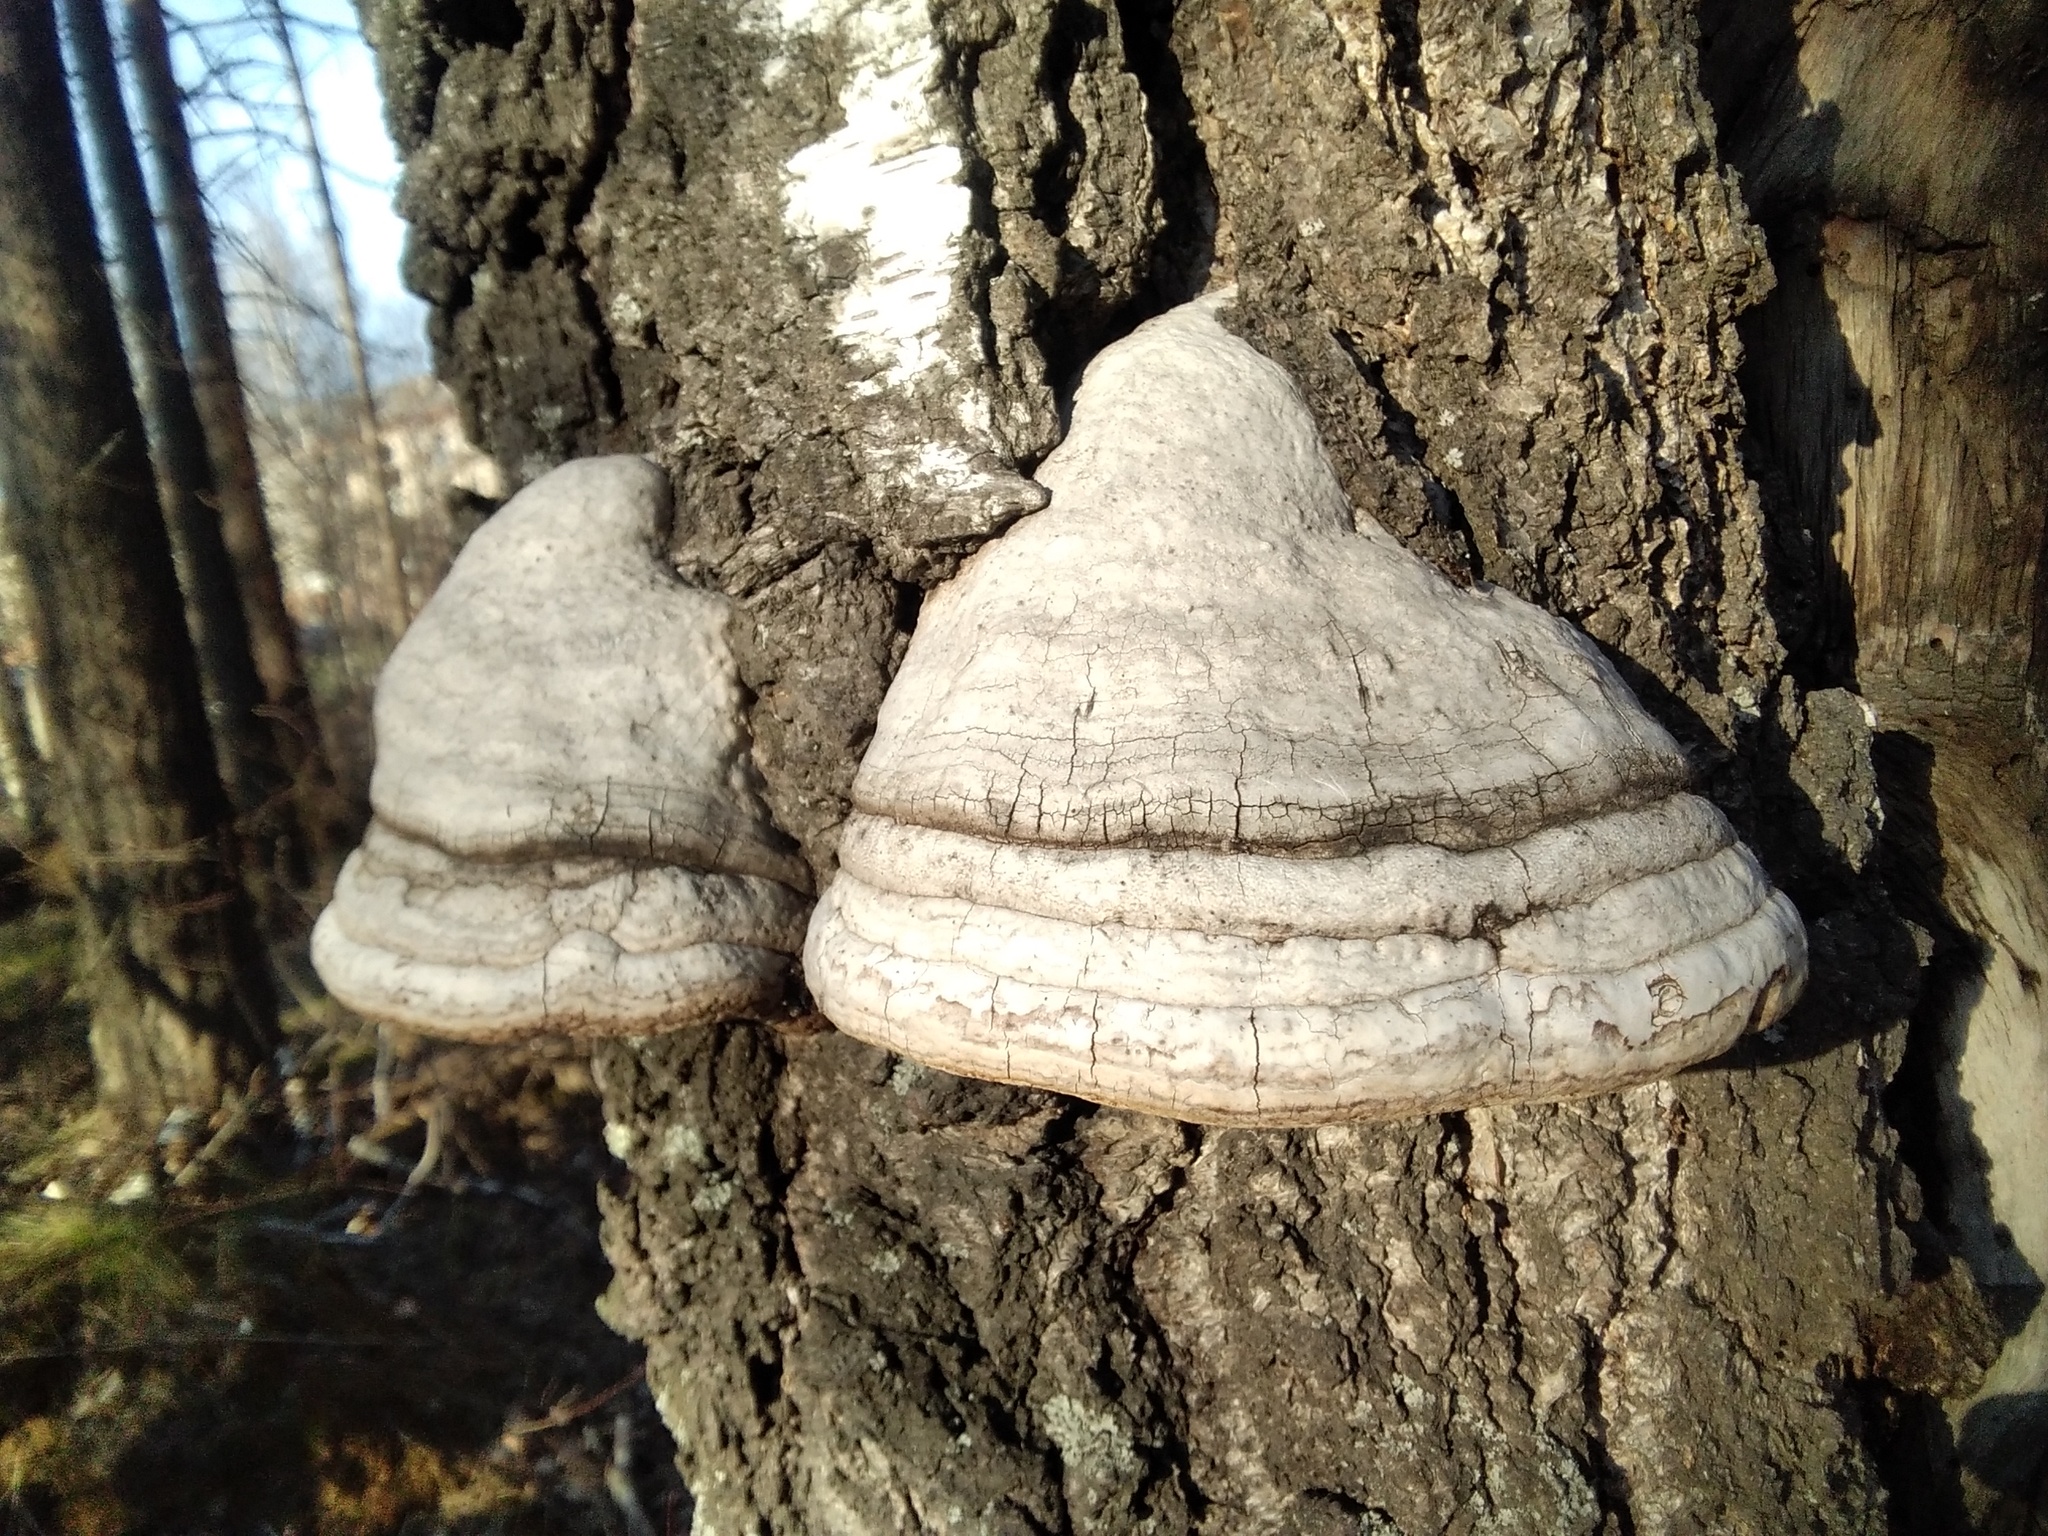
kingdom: Fungi
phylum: Basidiomycota
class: Agaricomycetes
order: Polyporales
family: Polyporaceae
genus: Fomes
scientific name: Fomes fomentarius
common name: Hoof fungus
